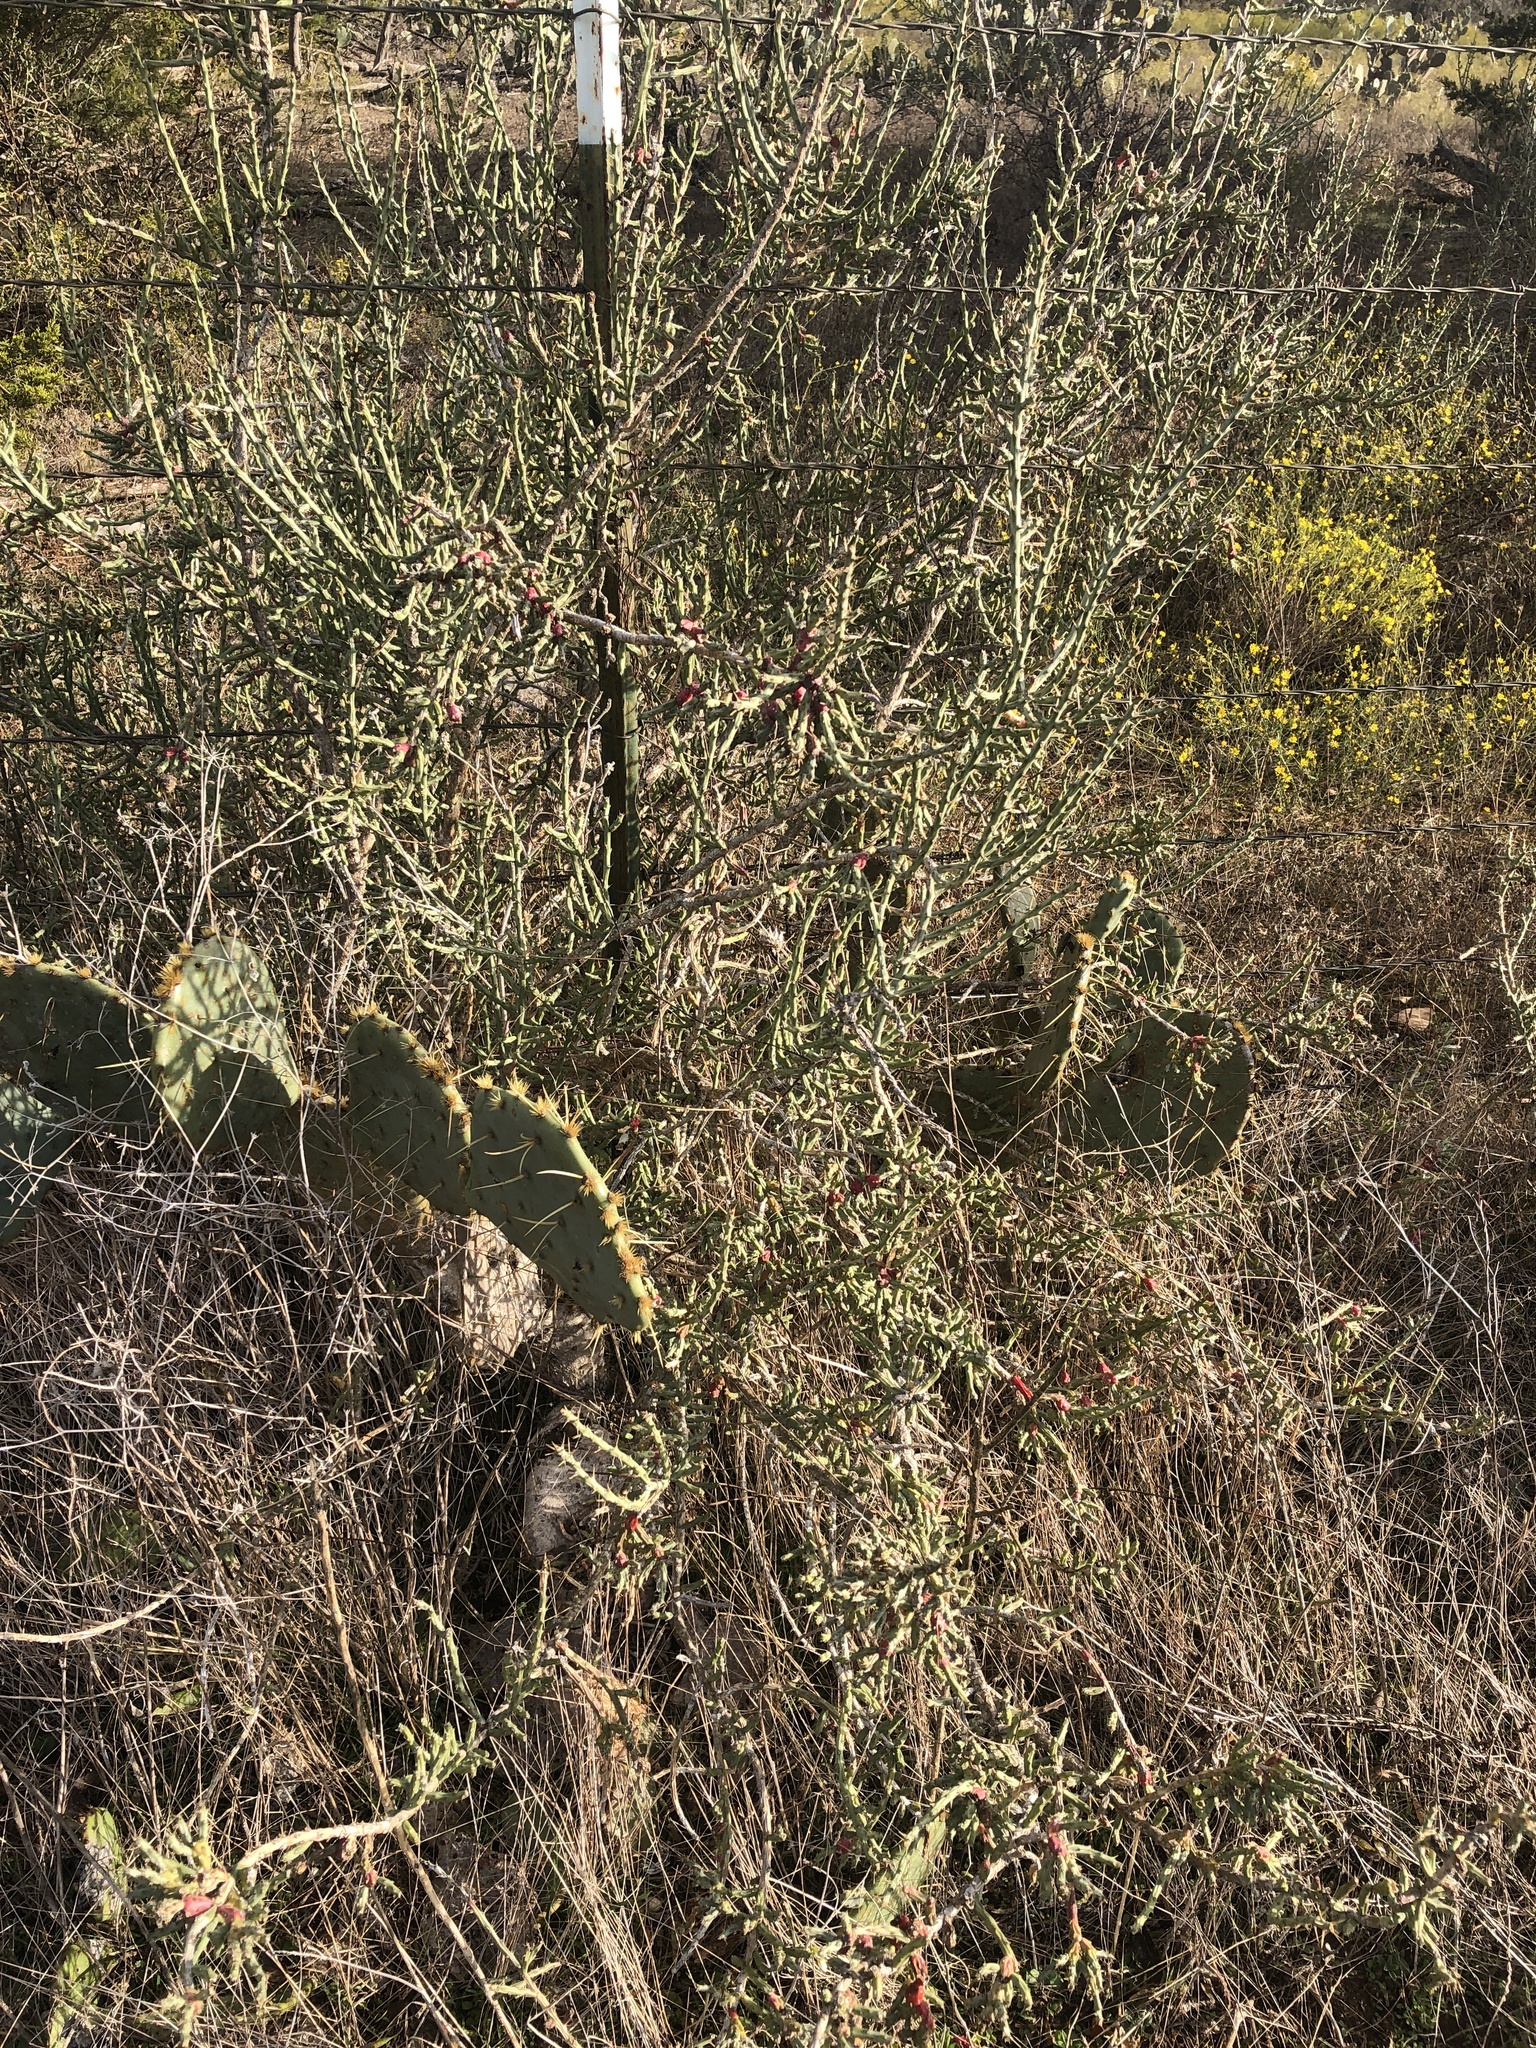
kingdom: Plantae
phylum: Tracheophyta
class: Magnoliopsida
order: Caryophyllales
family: Cactaceae
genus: Cylindropuntia
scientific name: Cylindropuntia leptocaulis
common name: Christmas cactus
